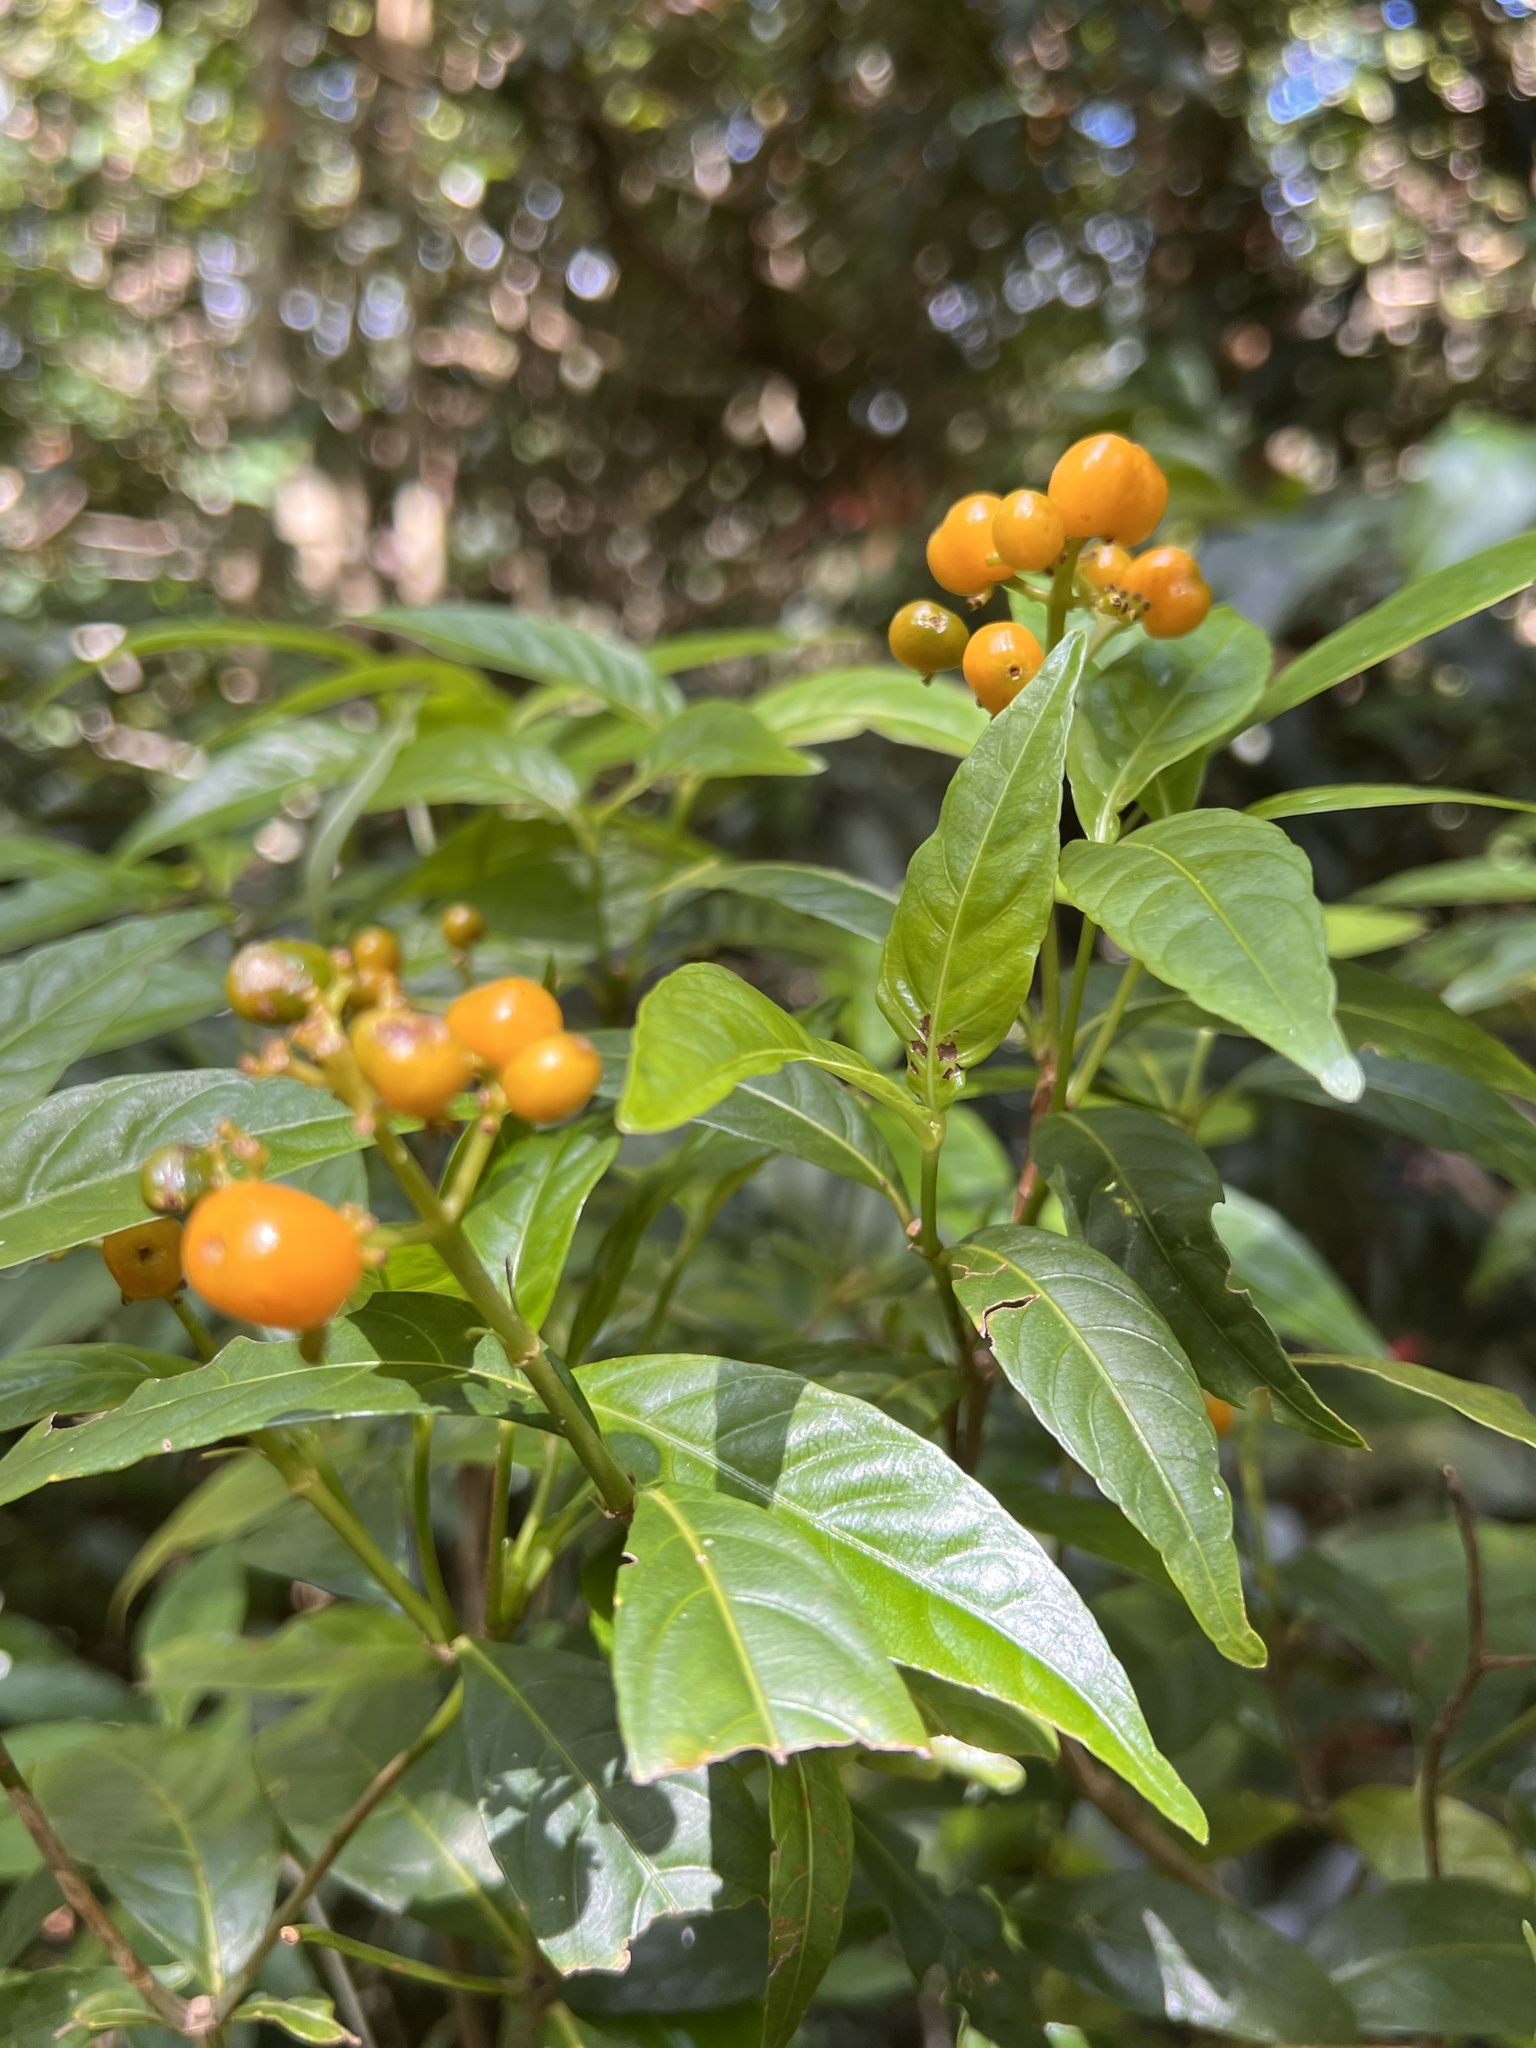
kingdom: Plantae
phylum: Tracheophyta
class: Magnoliopsida
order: Gentianales
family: Rubiaceae
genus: Palicourea
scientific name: Palicourea valeriana
